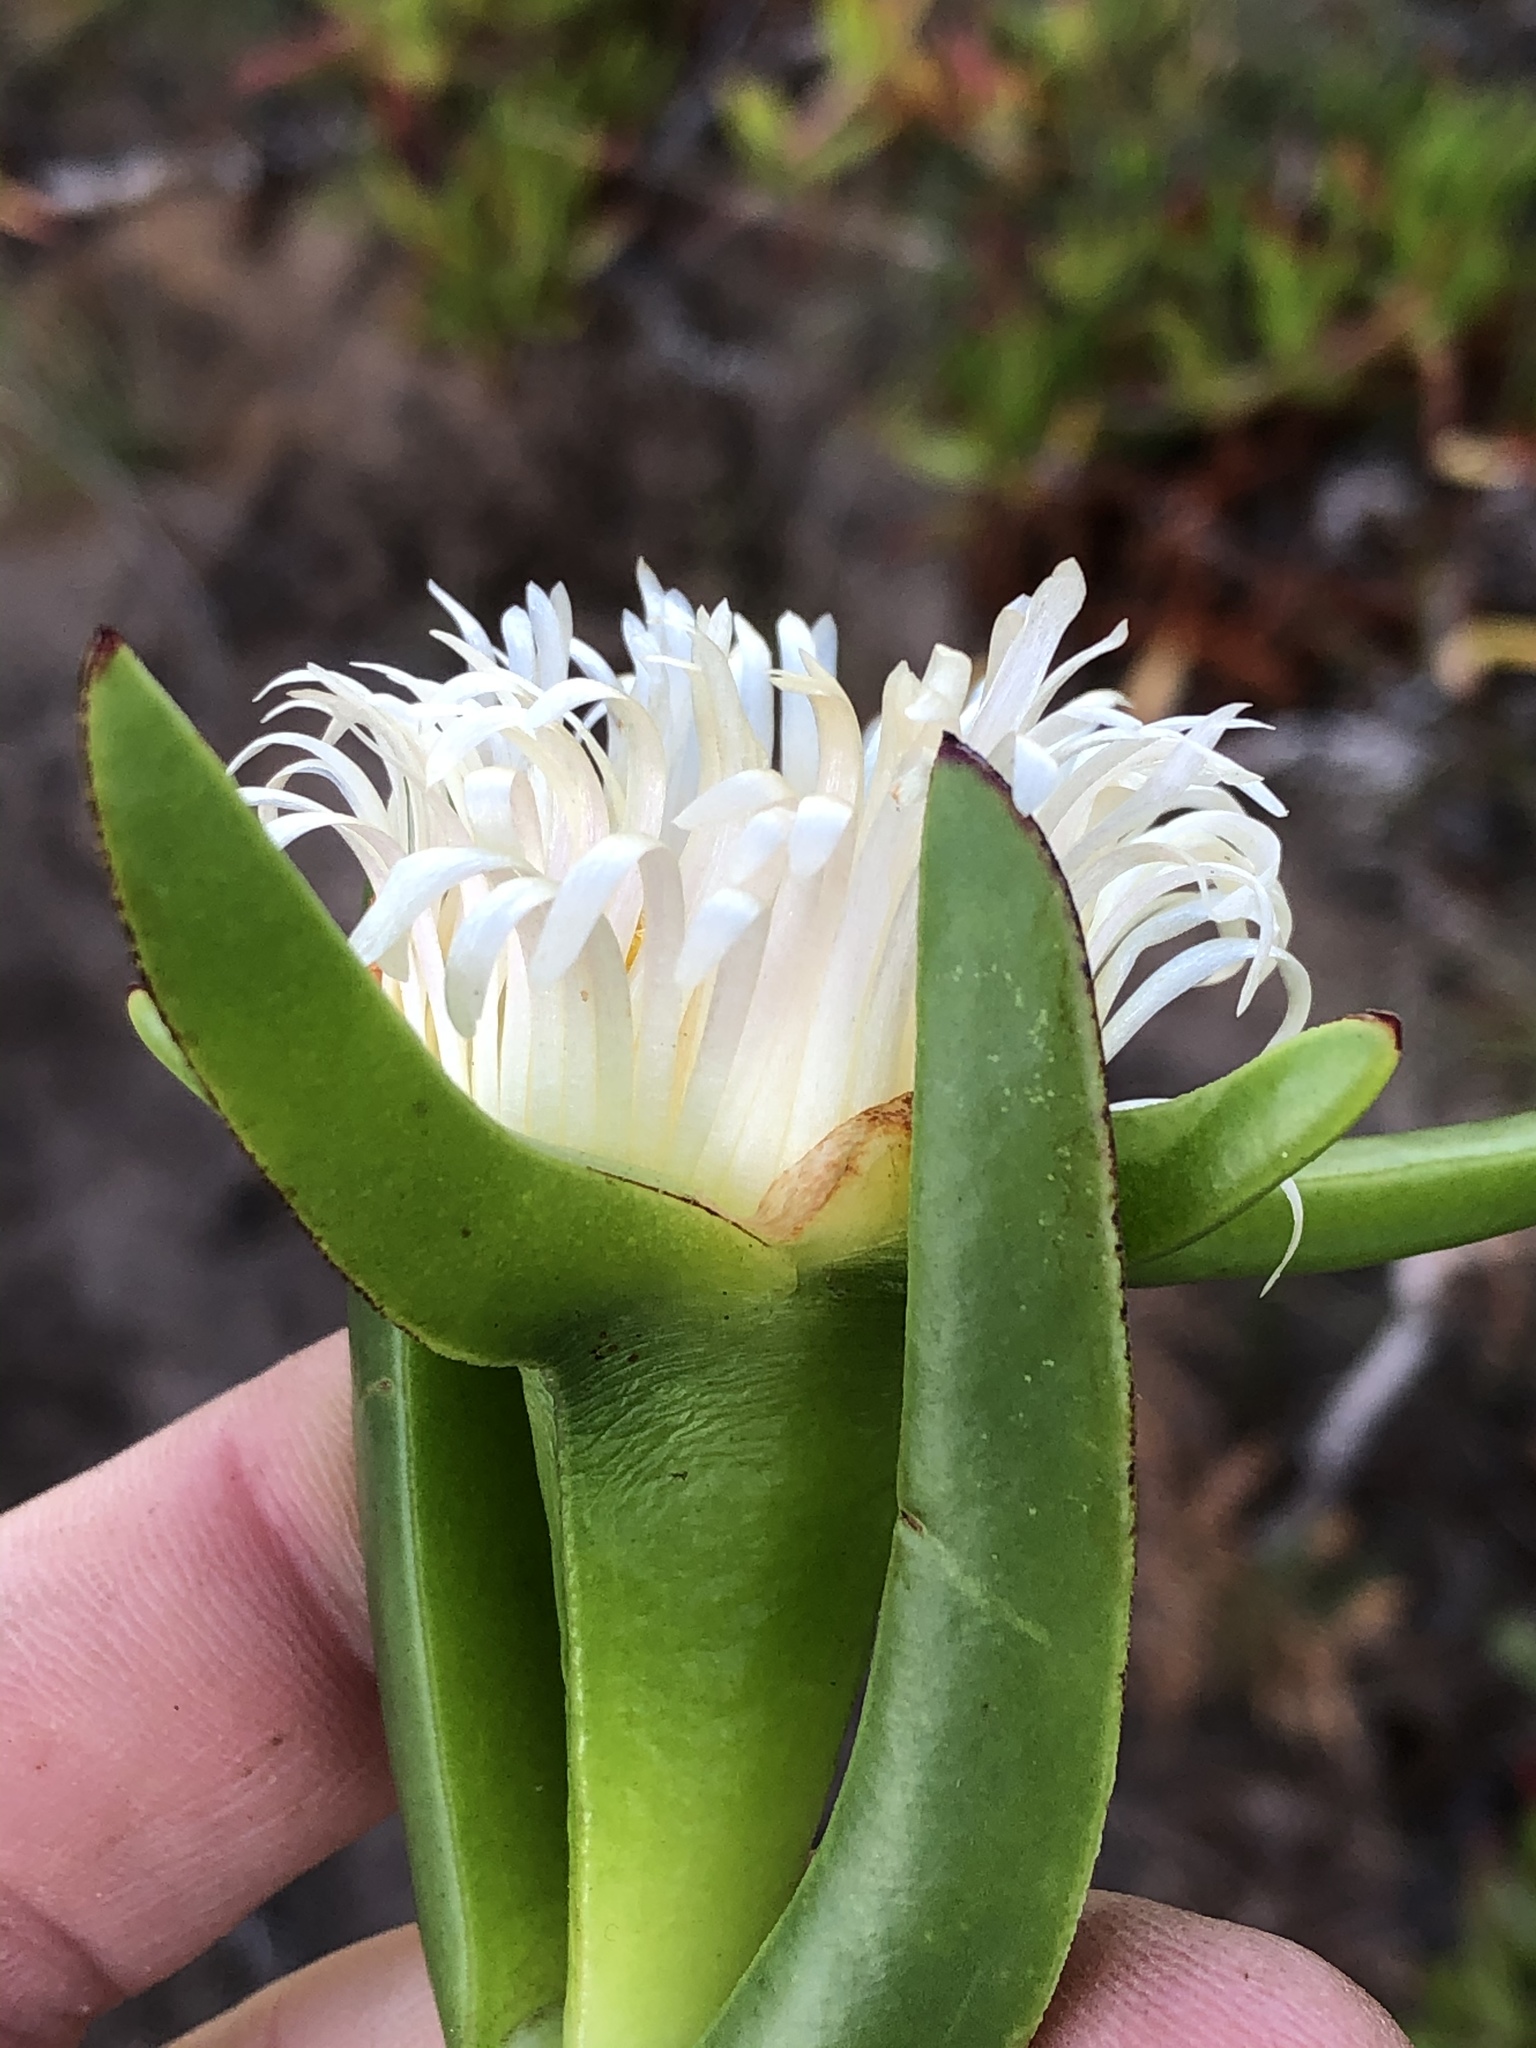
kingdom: Plantae
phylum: Tracheophyta
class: Magnoliopsida
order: Caryophyllales
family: Aizoaceae
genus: Carpobrotus
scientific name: Carpobrotus edulis
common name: Hottentot-fig
